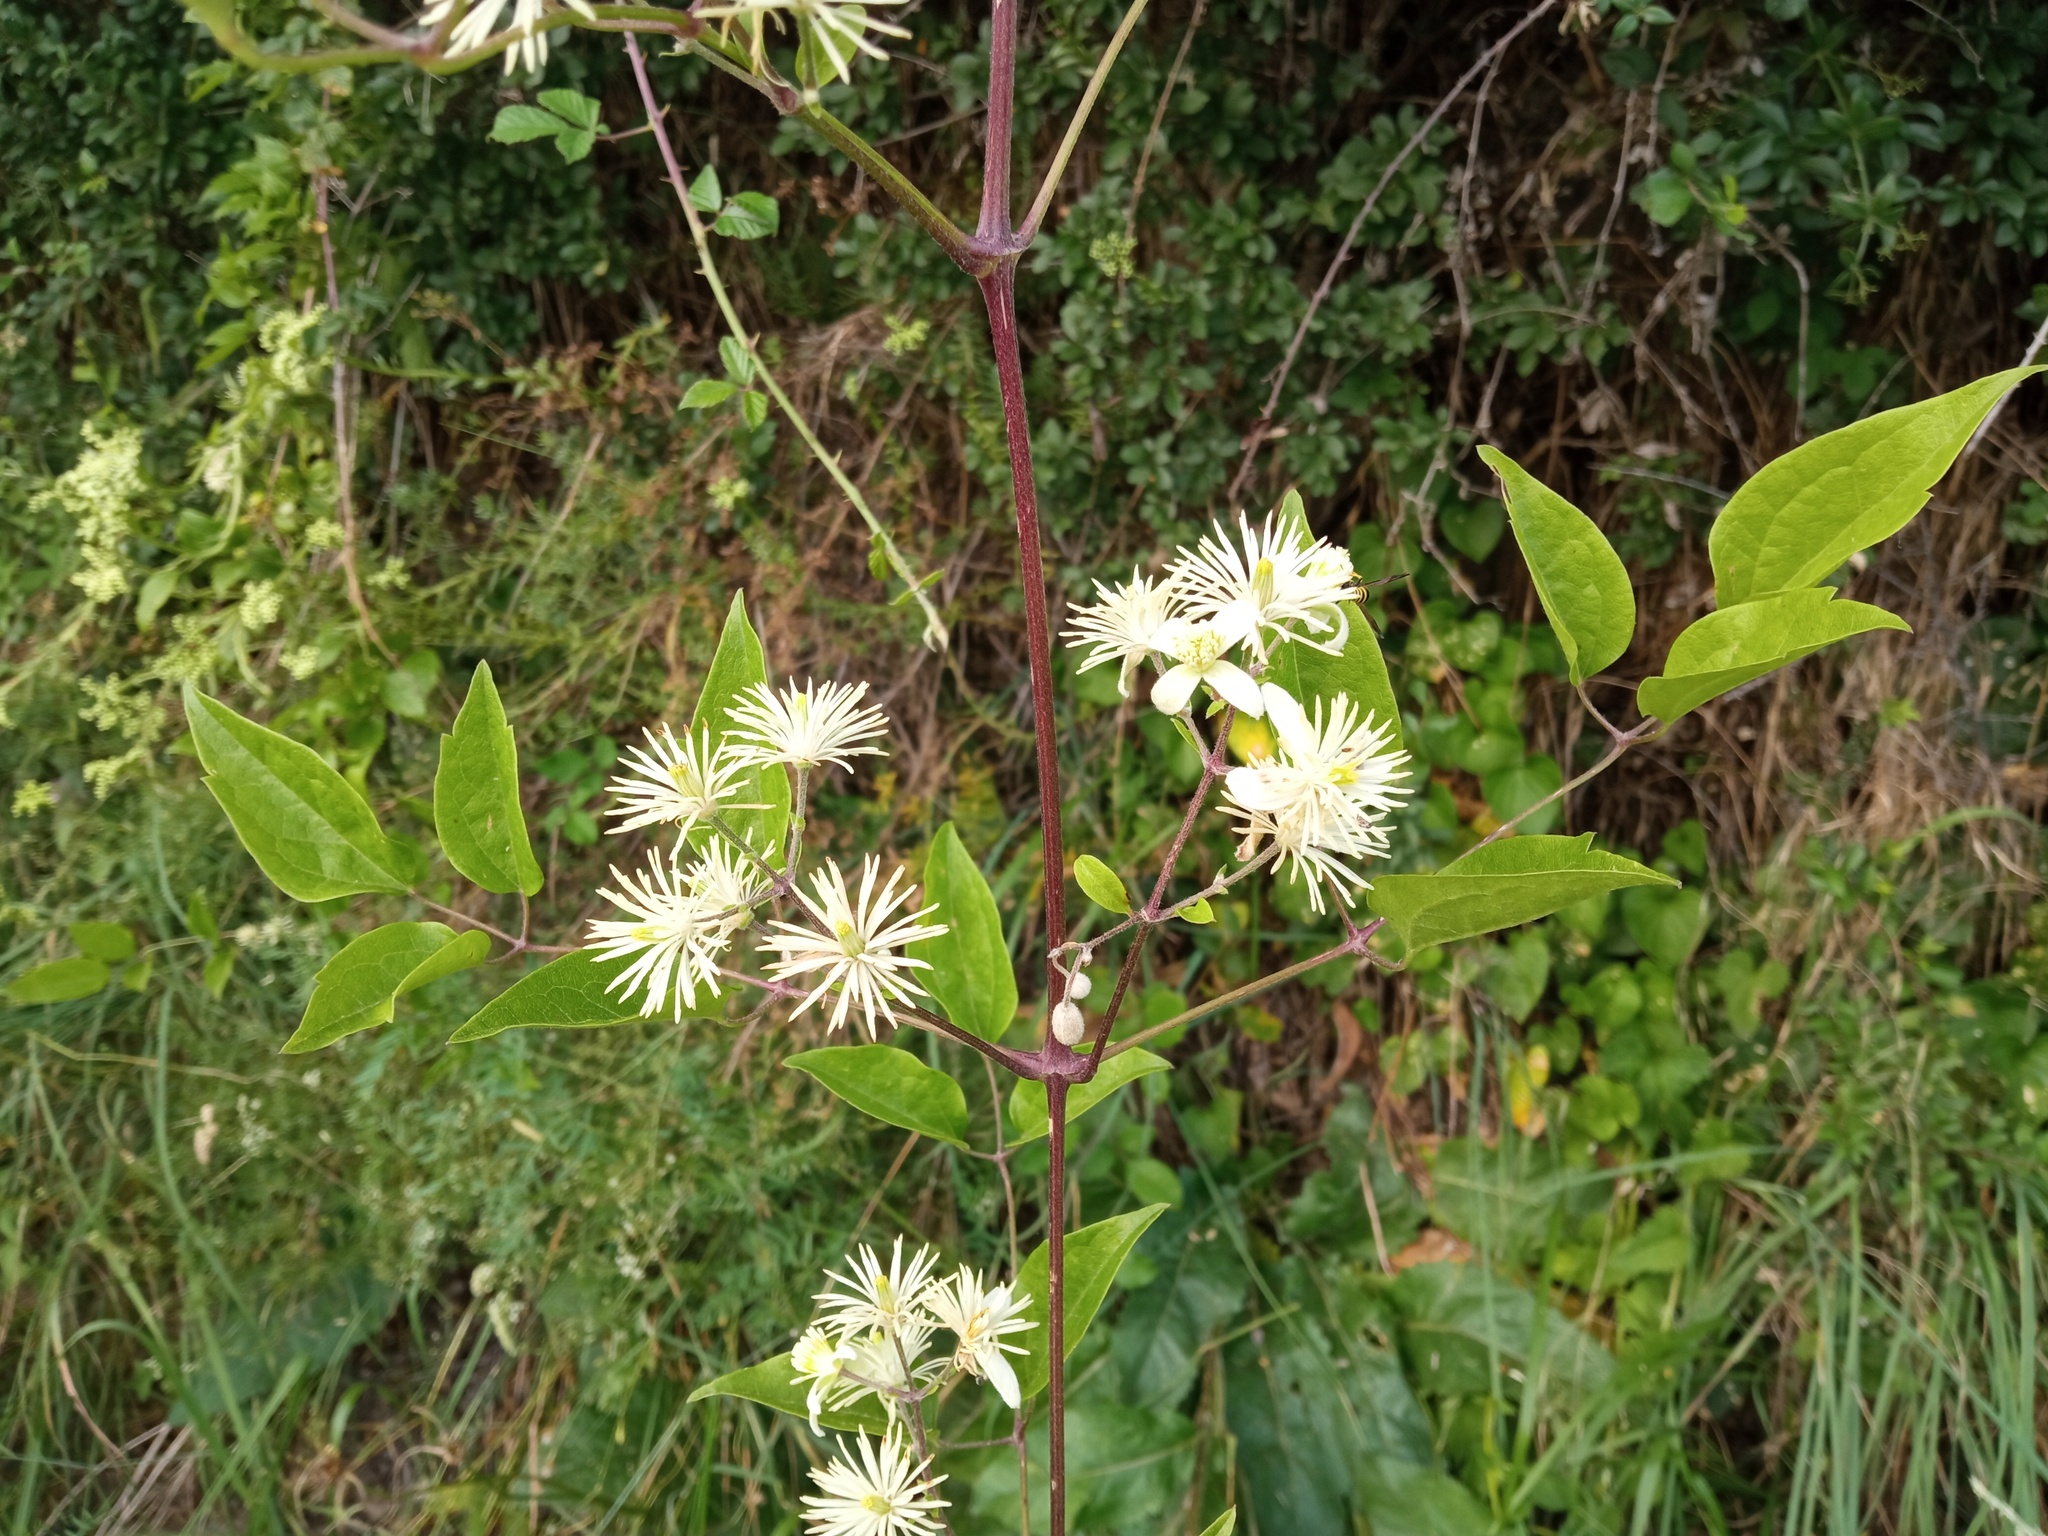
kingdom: Plantae
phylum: Tracheophyta
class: Magnoliopsida
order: Ranunculales
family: Ranunculaceae
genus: Clematis
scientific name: Clematis vitalba
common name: Evergreen clematis
